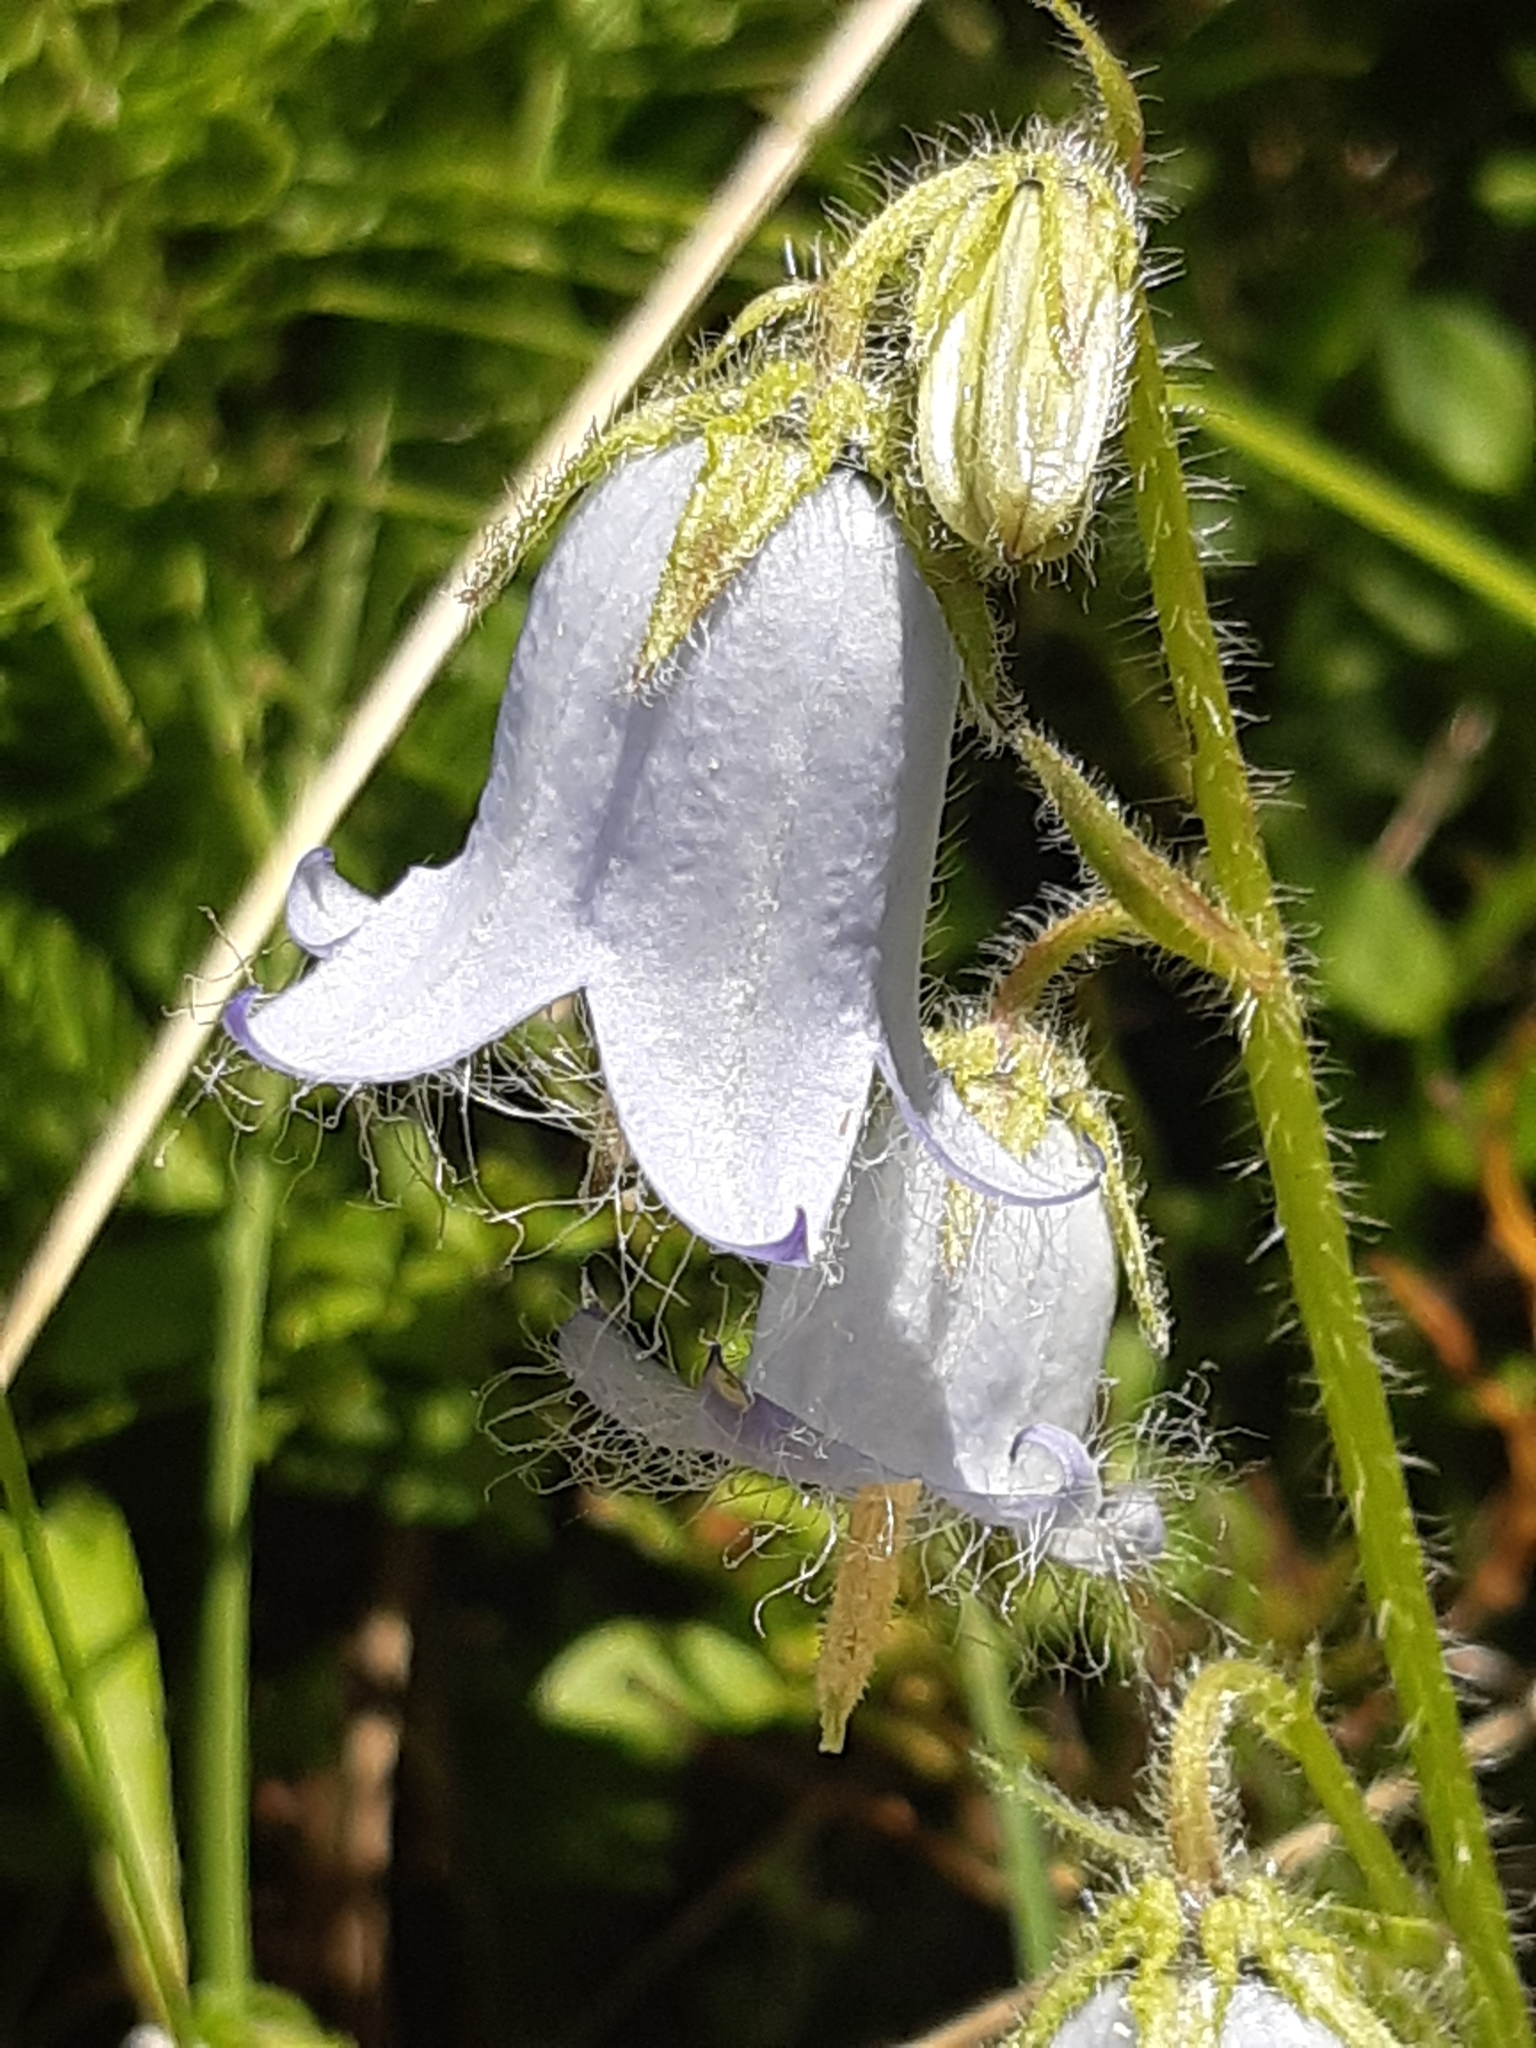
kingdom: Plantae
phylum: Tracheophyta
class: Magnoliopsida
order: Asterales
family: Campanulaceae
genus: Campanula
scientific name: Campanula barbata
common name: Bearded bellflower
